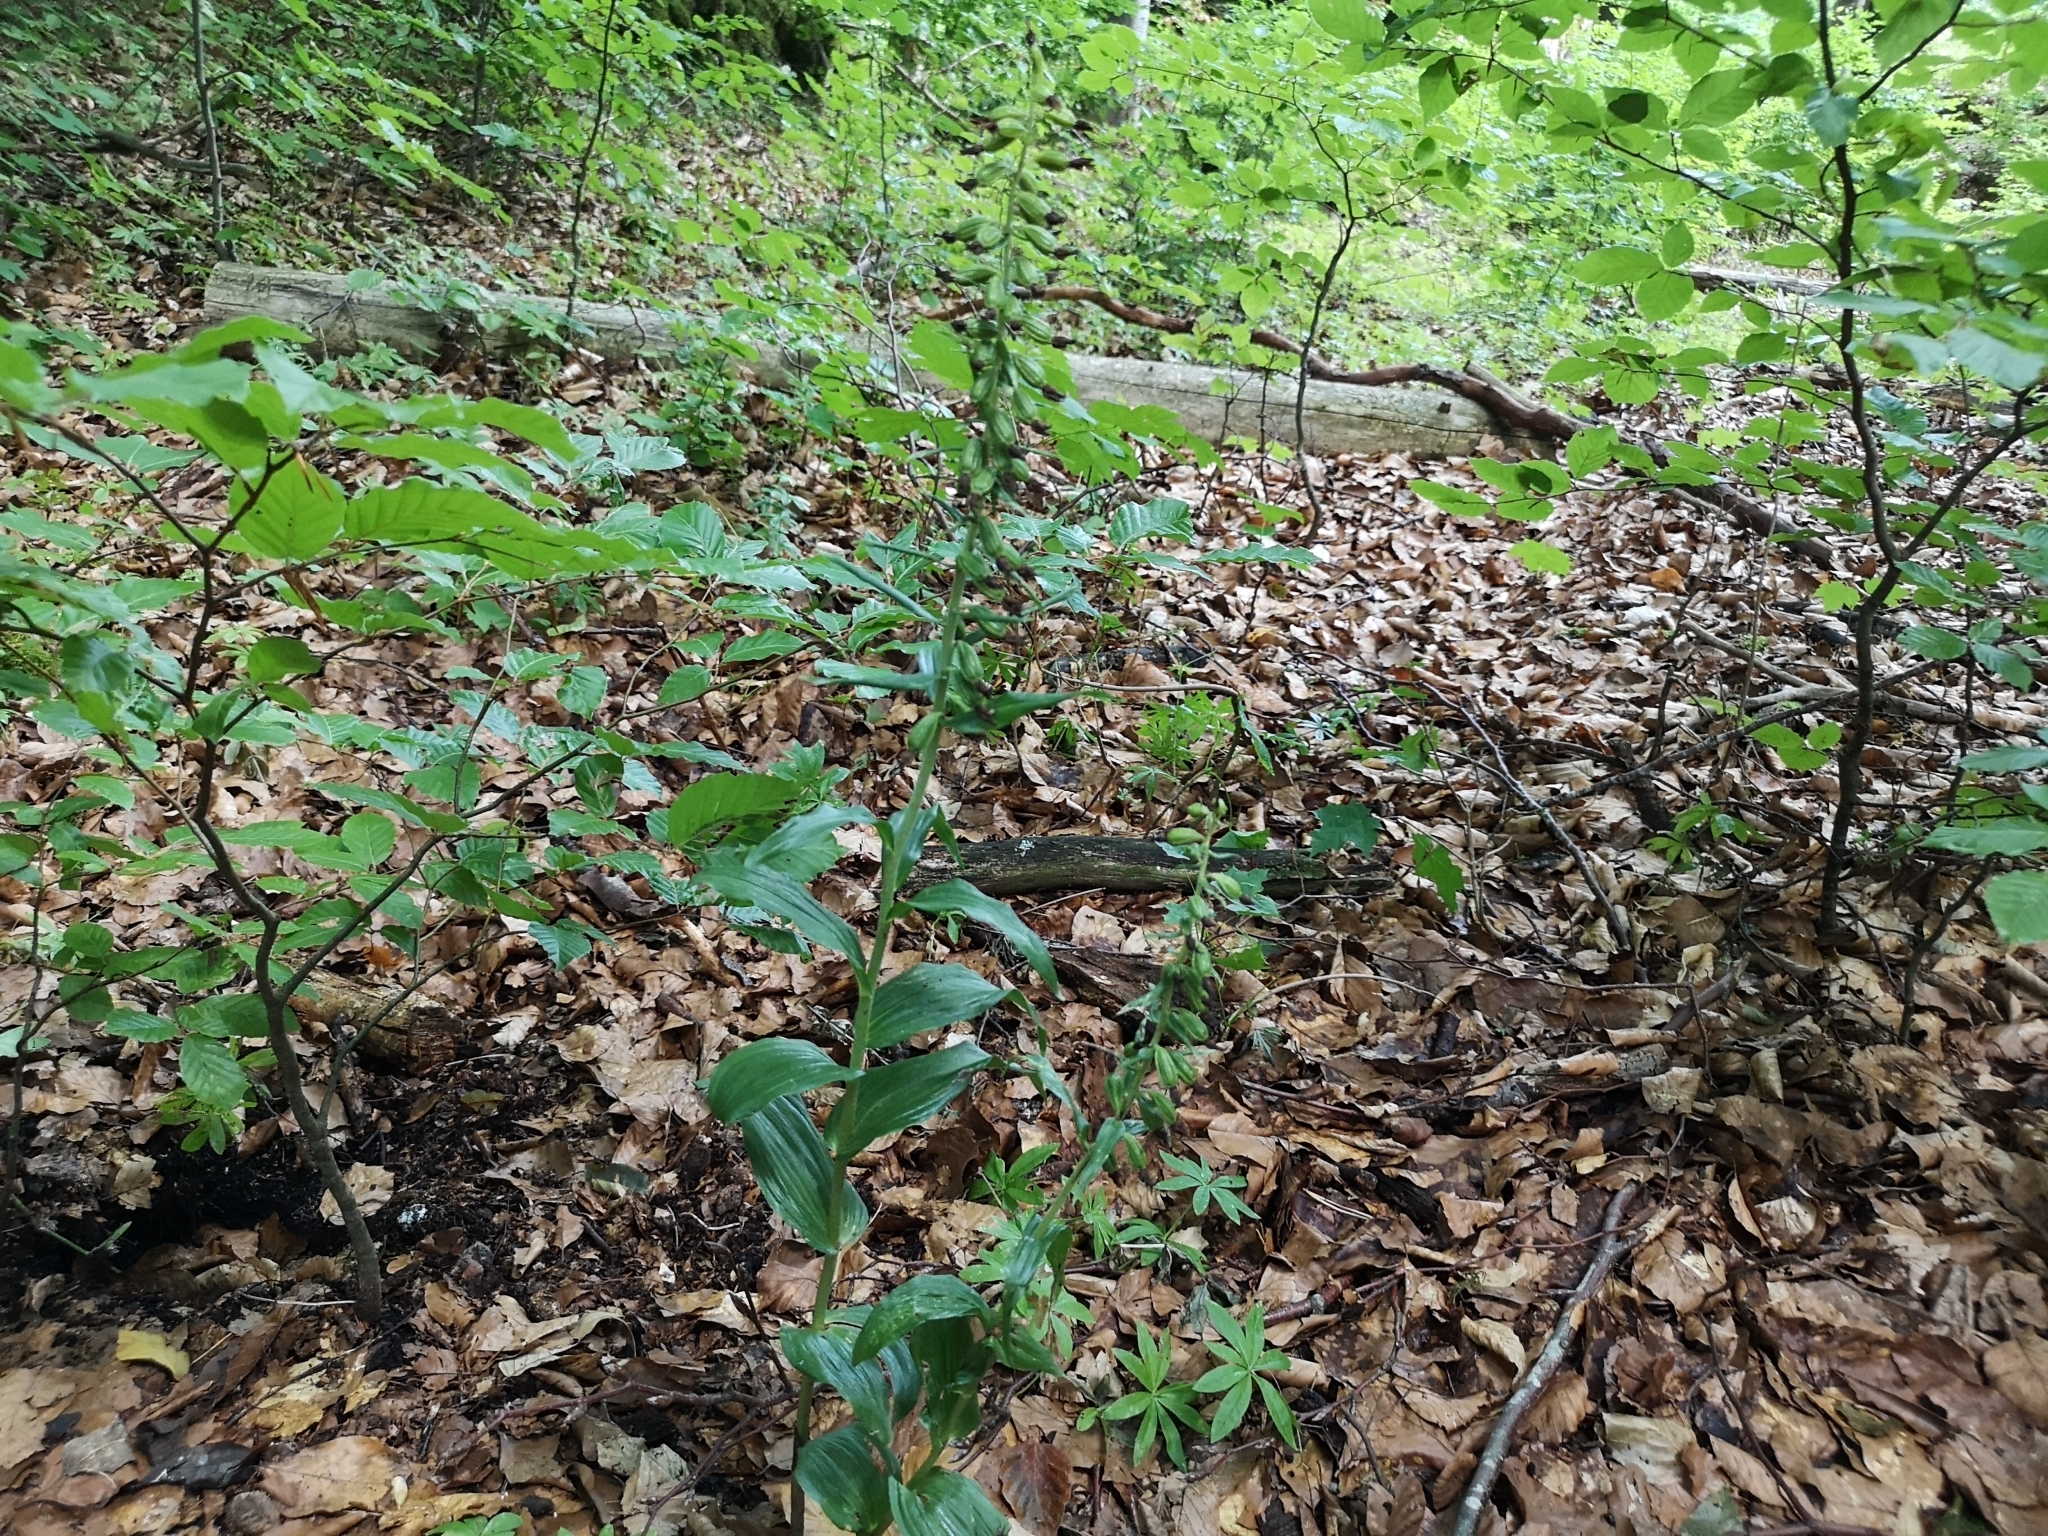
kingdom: Plantae
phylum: Tracheophyta
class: Liliopsida
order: Asparagales
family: Orchidaceae
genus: Epipactis
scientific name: Epipactis helleborine
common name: Broad-leaved helleborine
